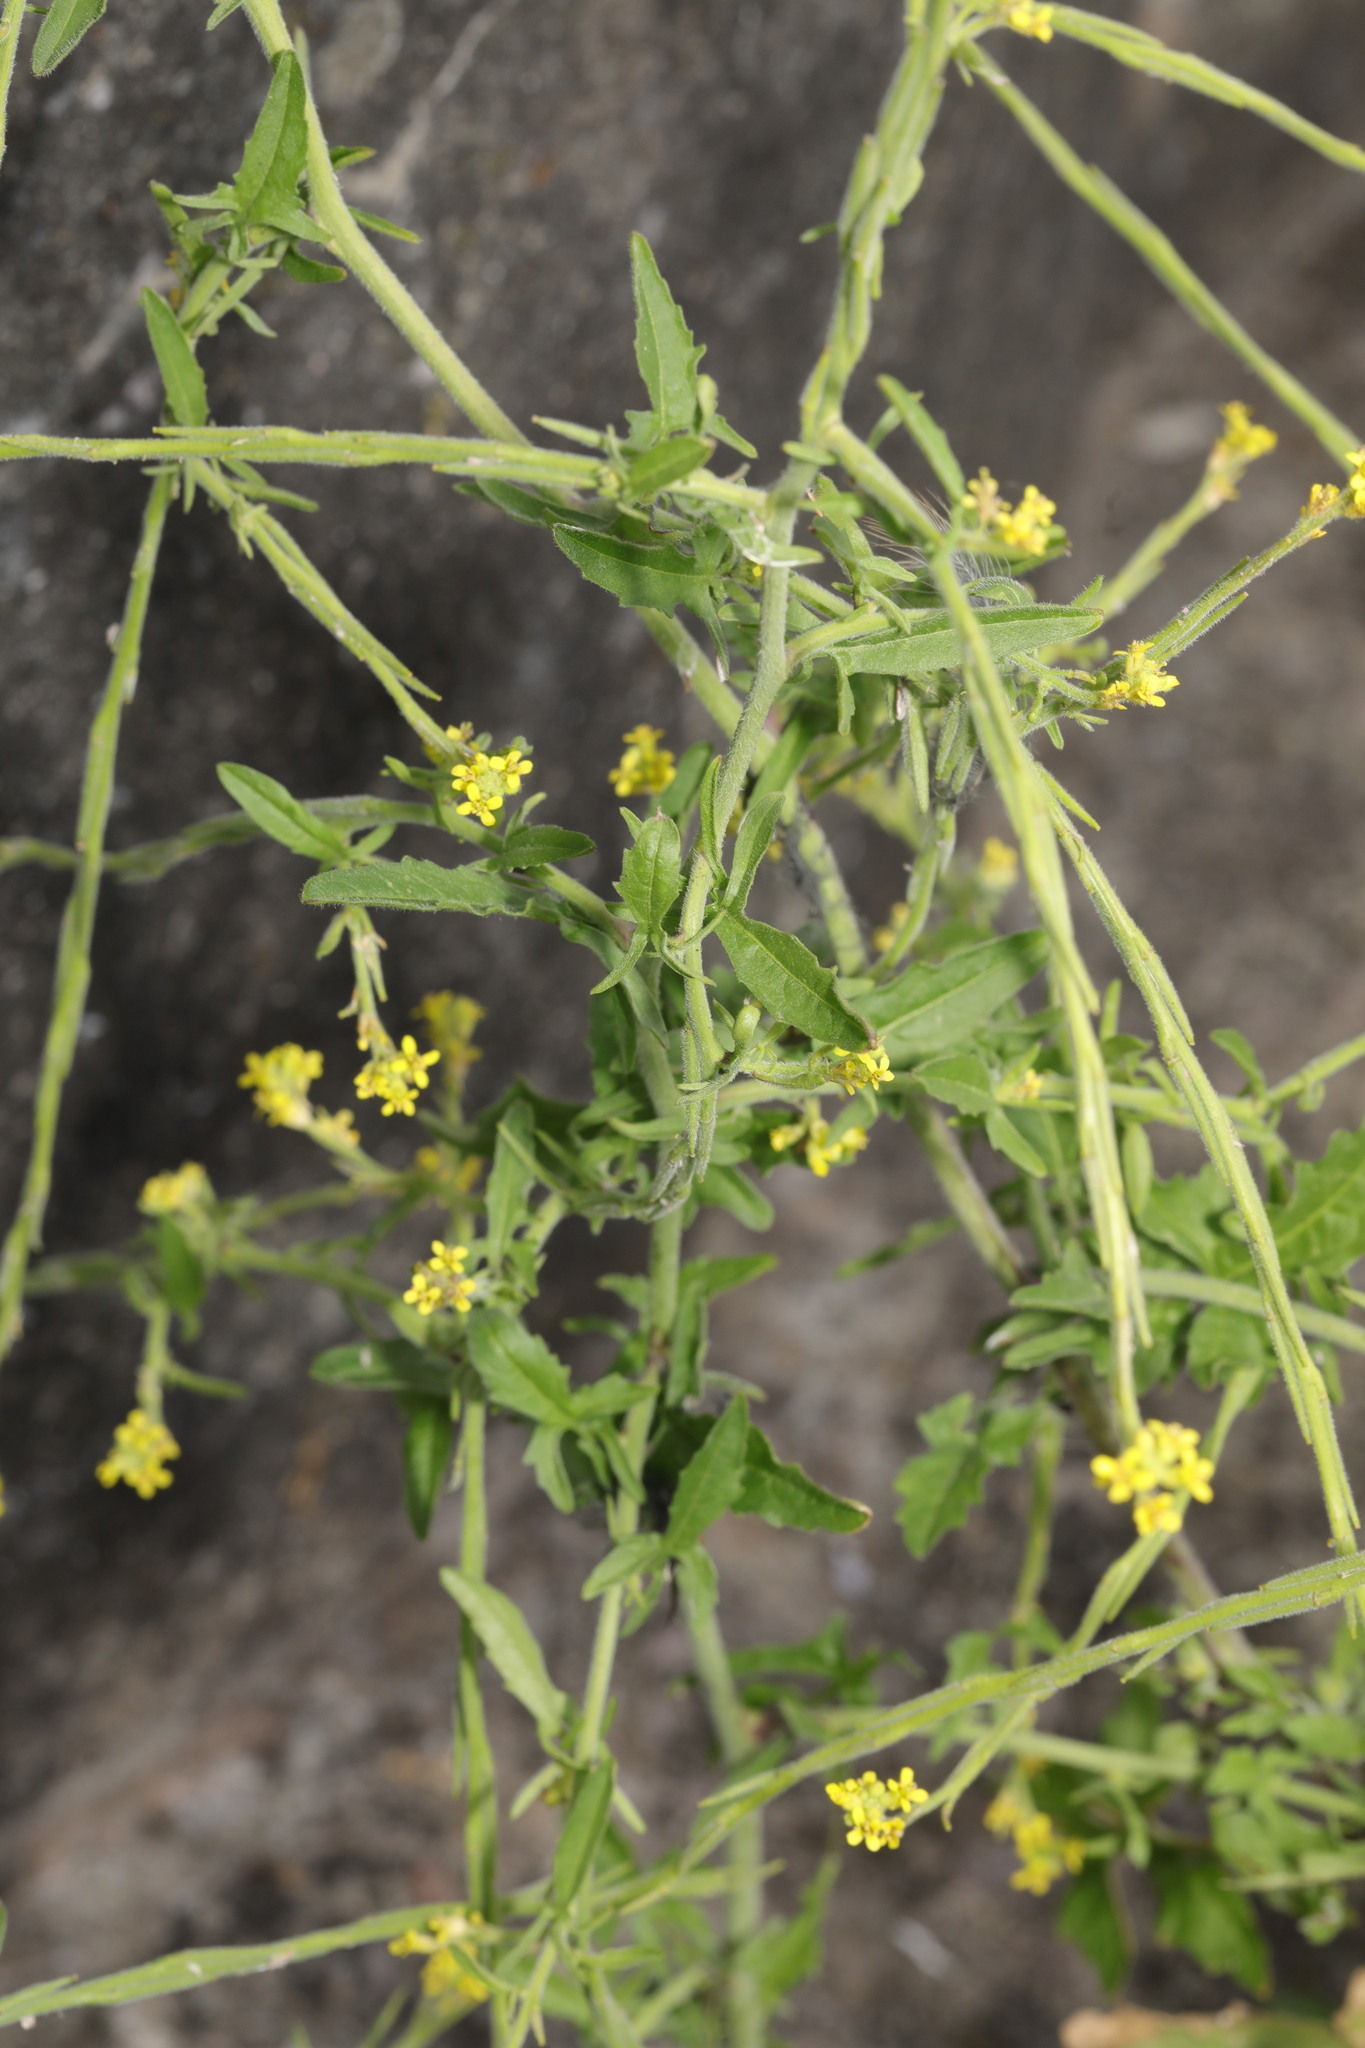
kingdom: Plantae
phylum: Tracheophyta
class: Magnoliopsida
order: Brassicales
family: Brassicaceae
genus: Sisymbrium
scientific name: Sisymbrium officinale
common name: Hedge mustard
